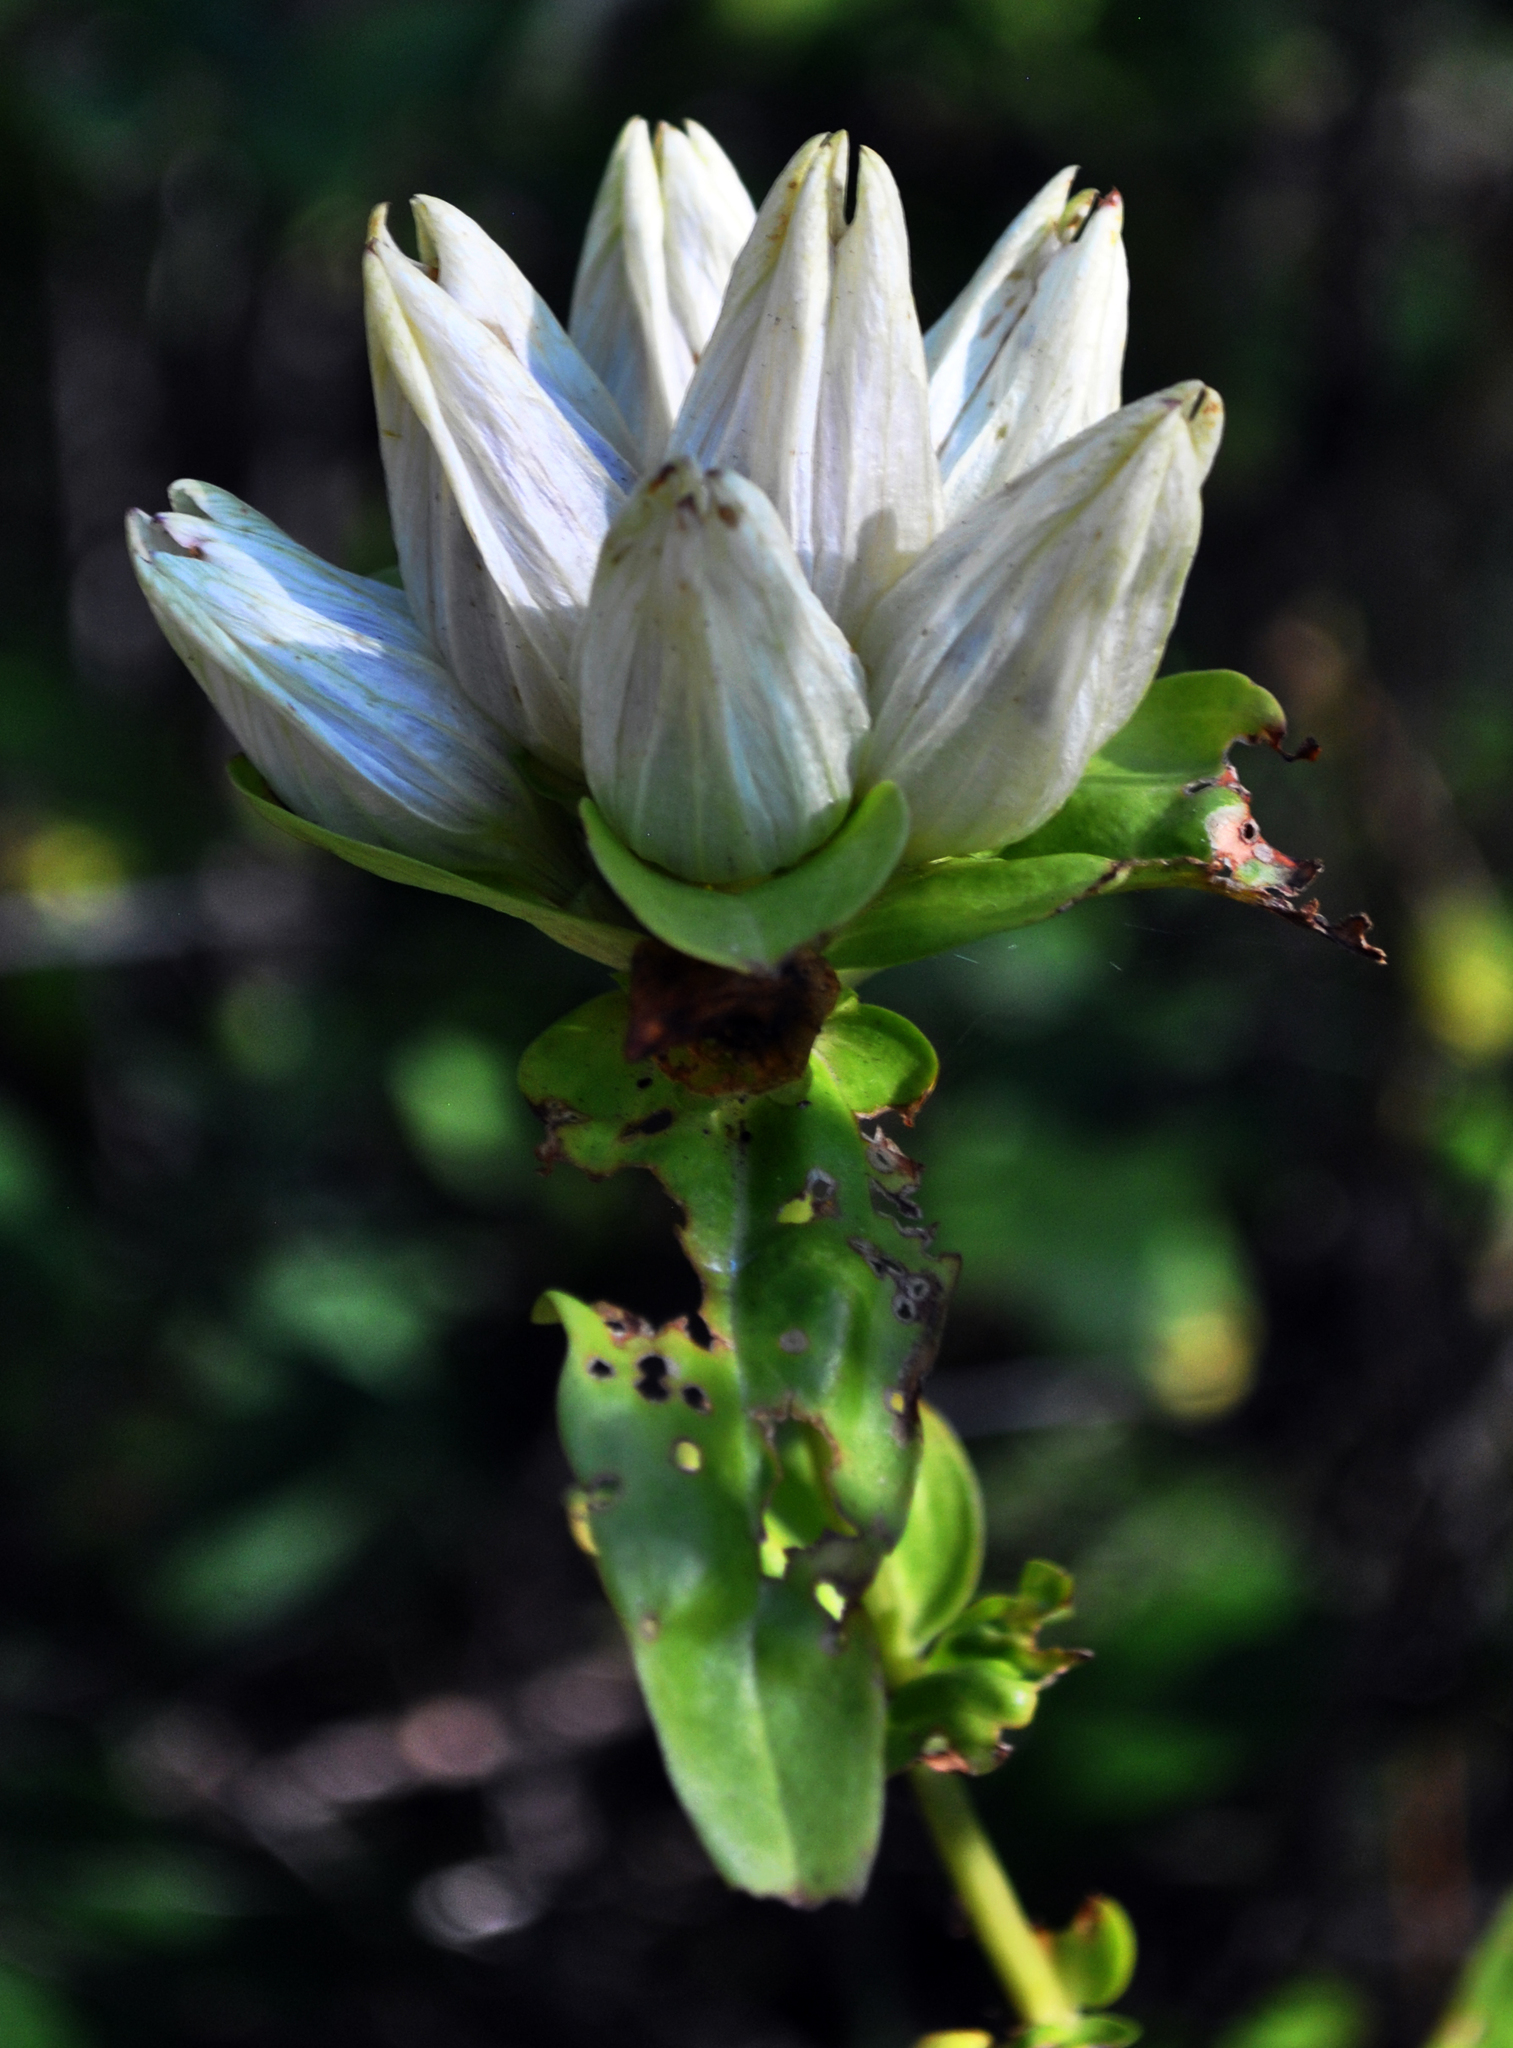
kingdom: Plantae
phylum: Tracheophyta
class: Magnoliopsida
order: Gentianales
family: Gentianaceae
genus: Gentiana
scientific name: Gentiana alba
